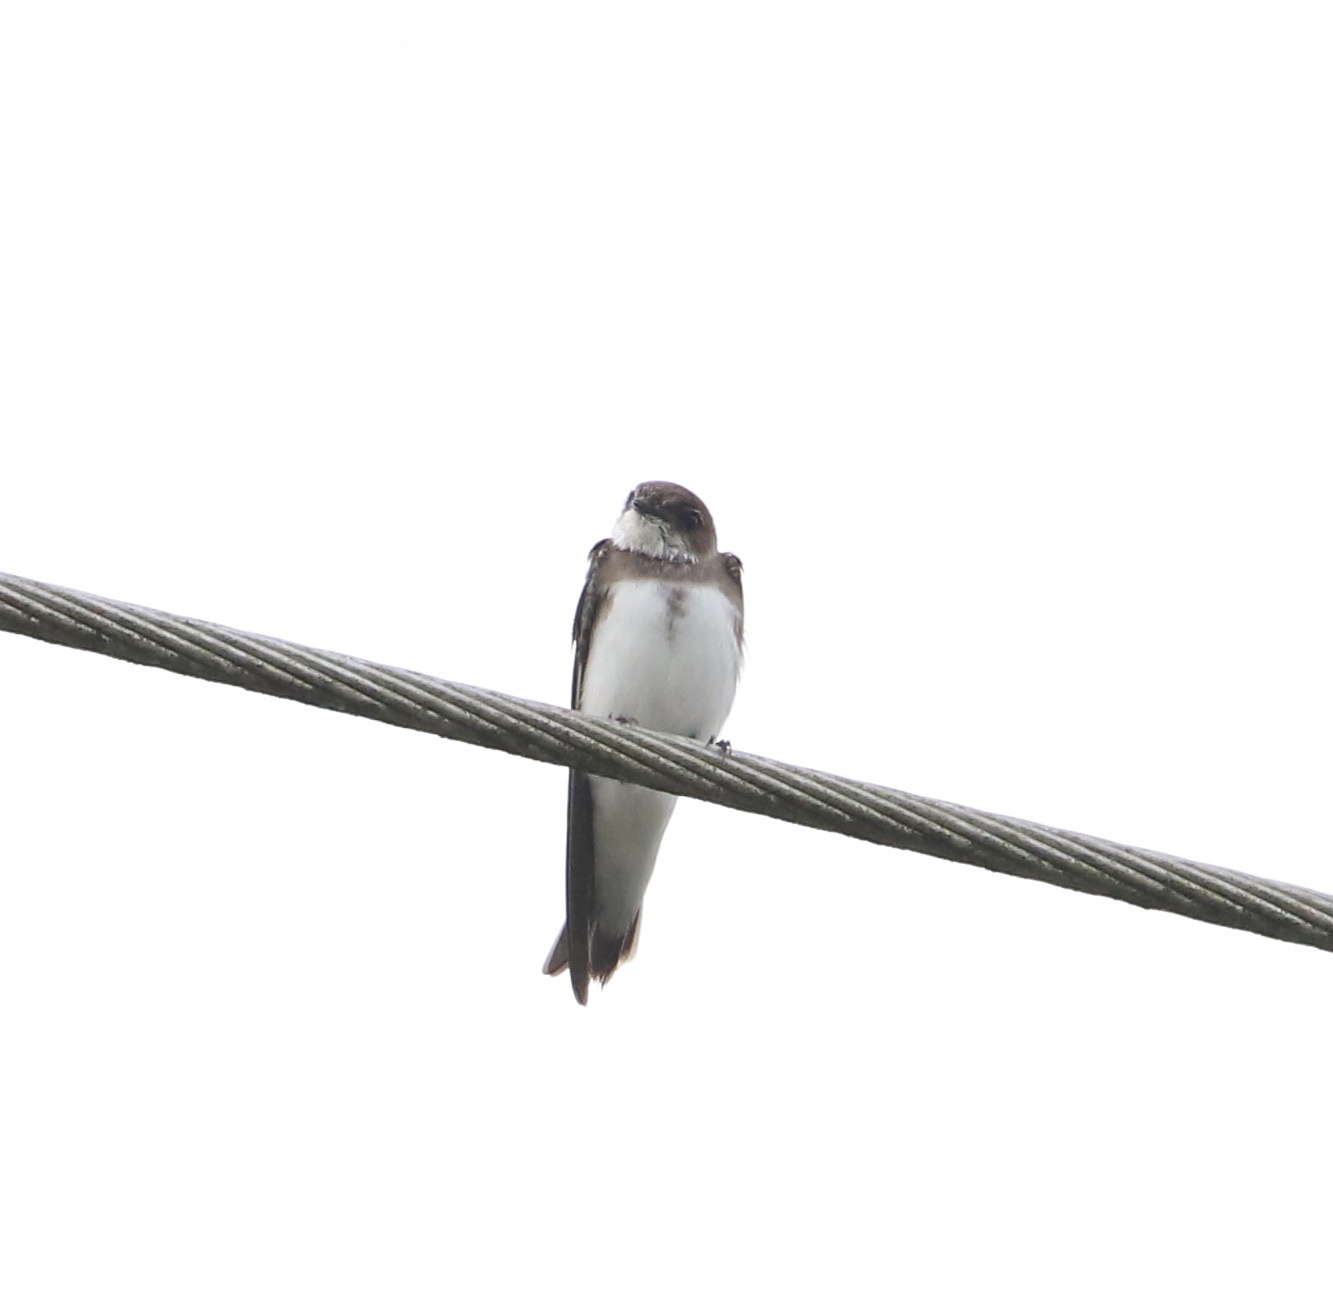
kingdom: Animalia
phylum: Chordata
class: Aves
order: Passeriformes
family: Hirundinidae
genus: Riparia
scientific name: Riparia riparia
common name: Sand martin
